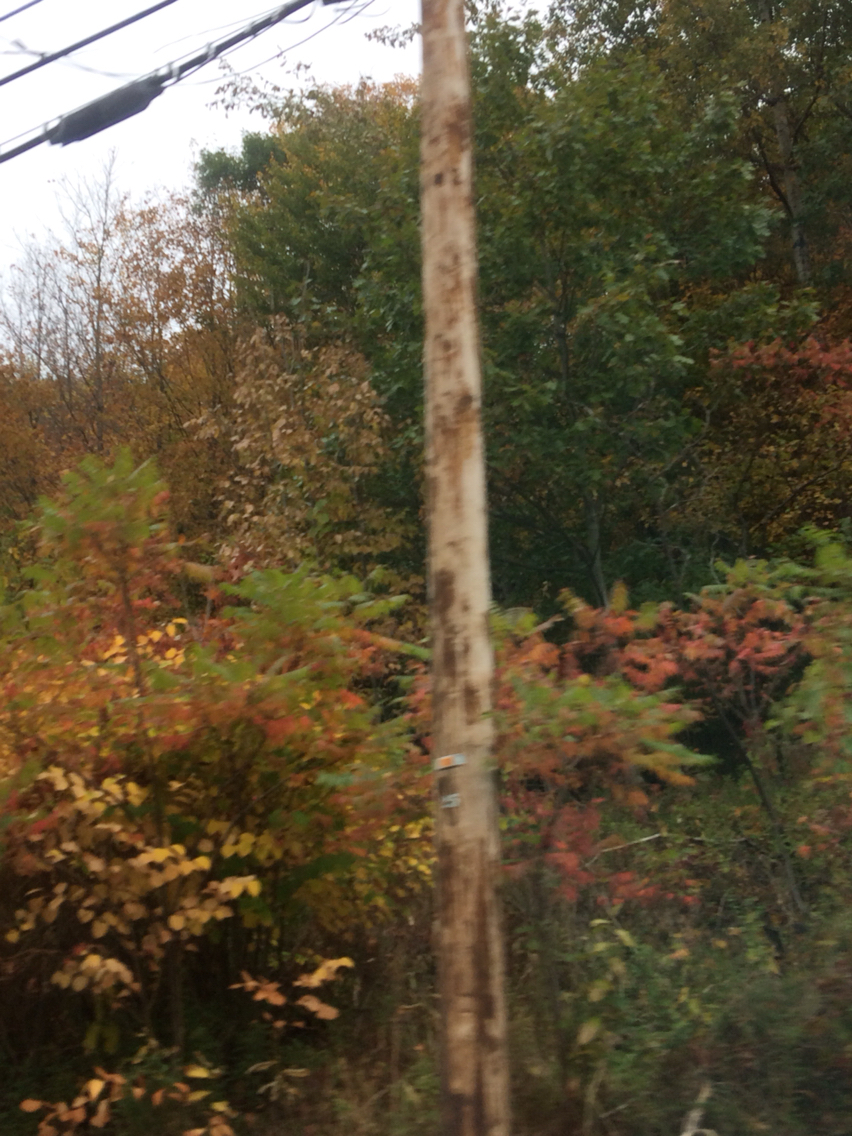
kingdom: Plantae
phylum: Tracheophyta
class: Magnoliopsida
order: Sapindales
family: Anacardiaceae
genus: Rhus
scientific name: Rhus typhina
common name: Staghorn sumac
